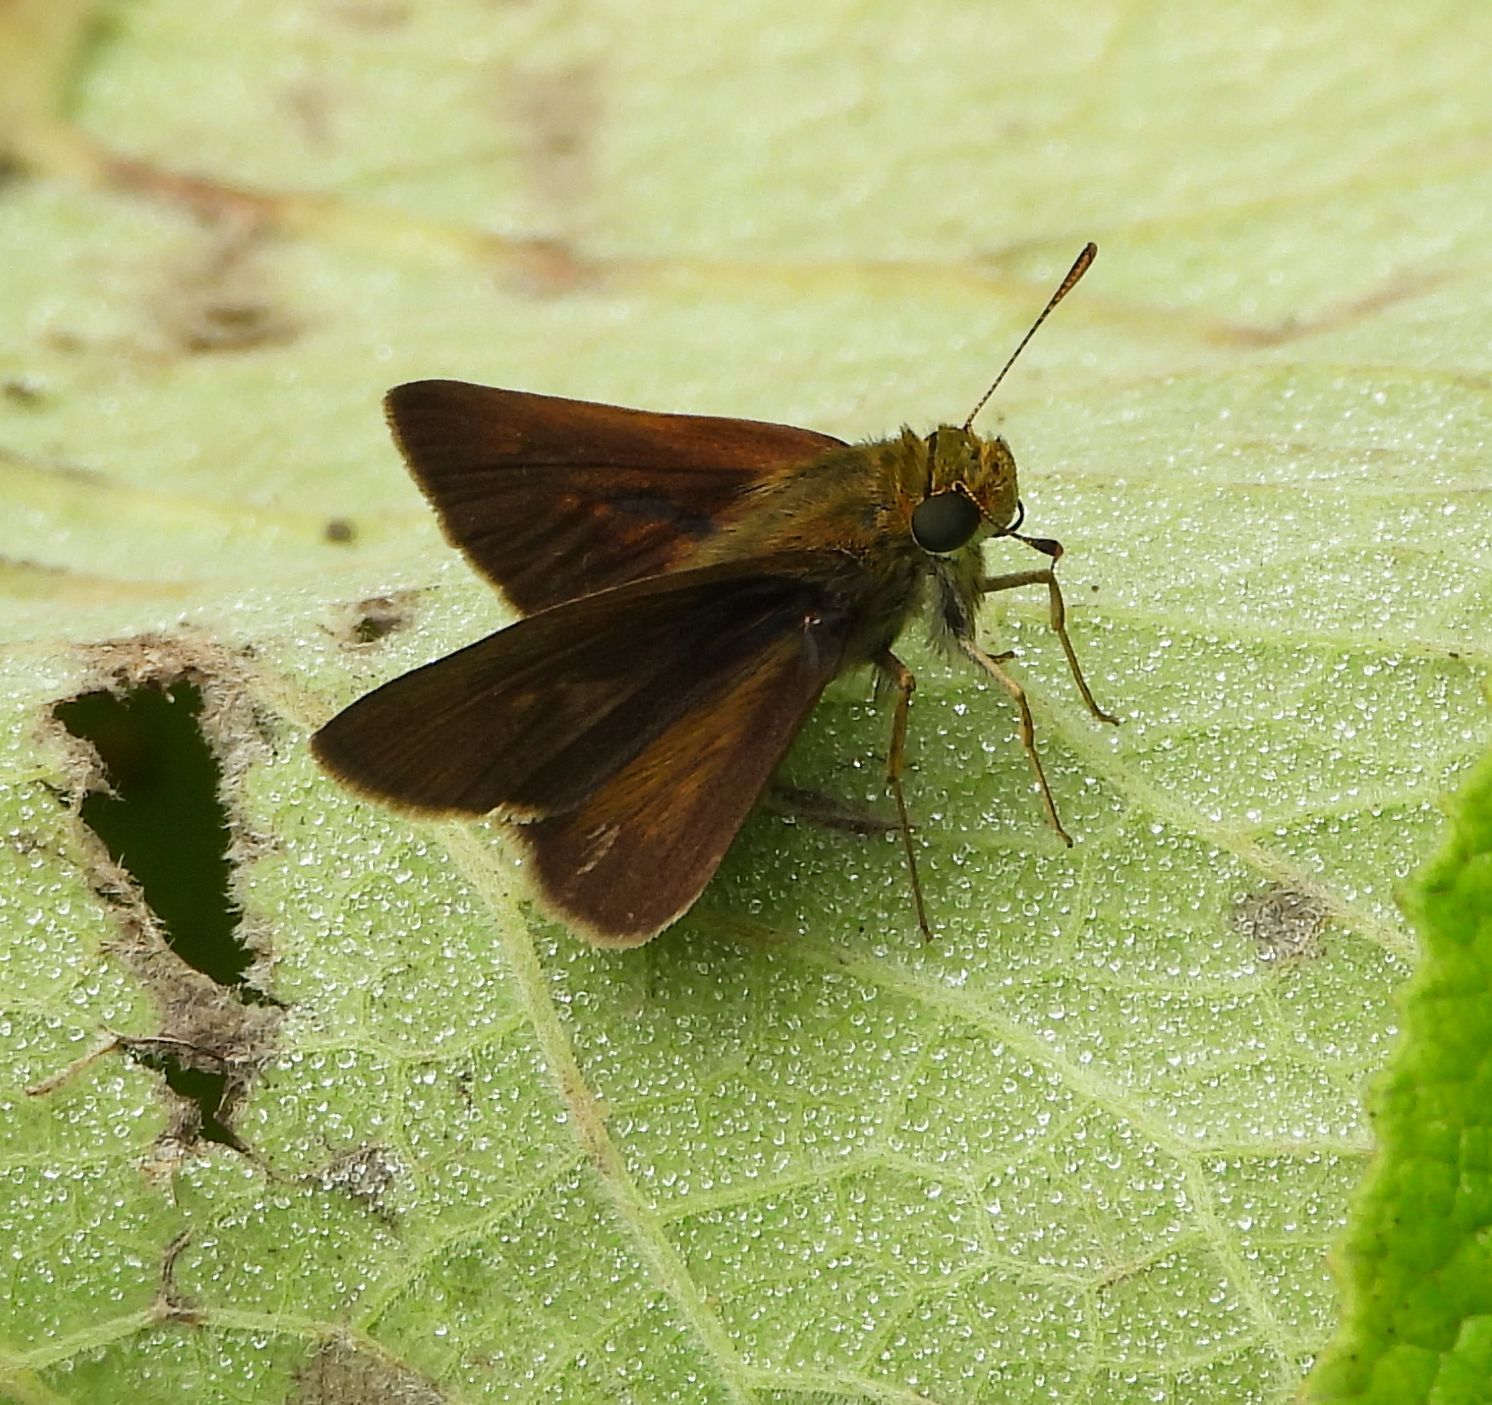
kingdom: Animalia
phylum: Arthropoda
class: Insecta
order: Lepidoptera
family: Hesperiidae
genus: Euphyes
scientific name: Euphyes vestris
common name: Dun skipper
